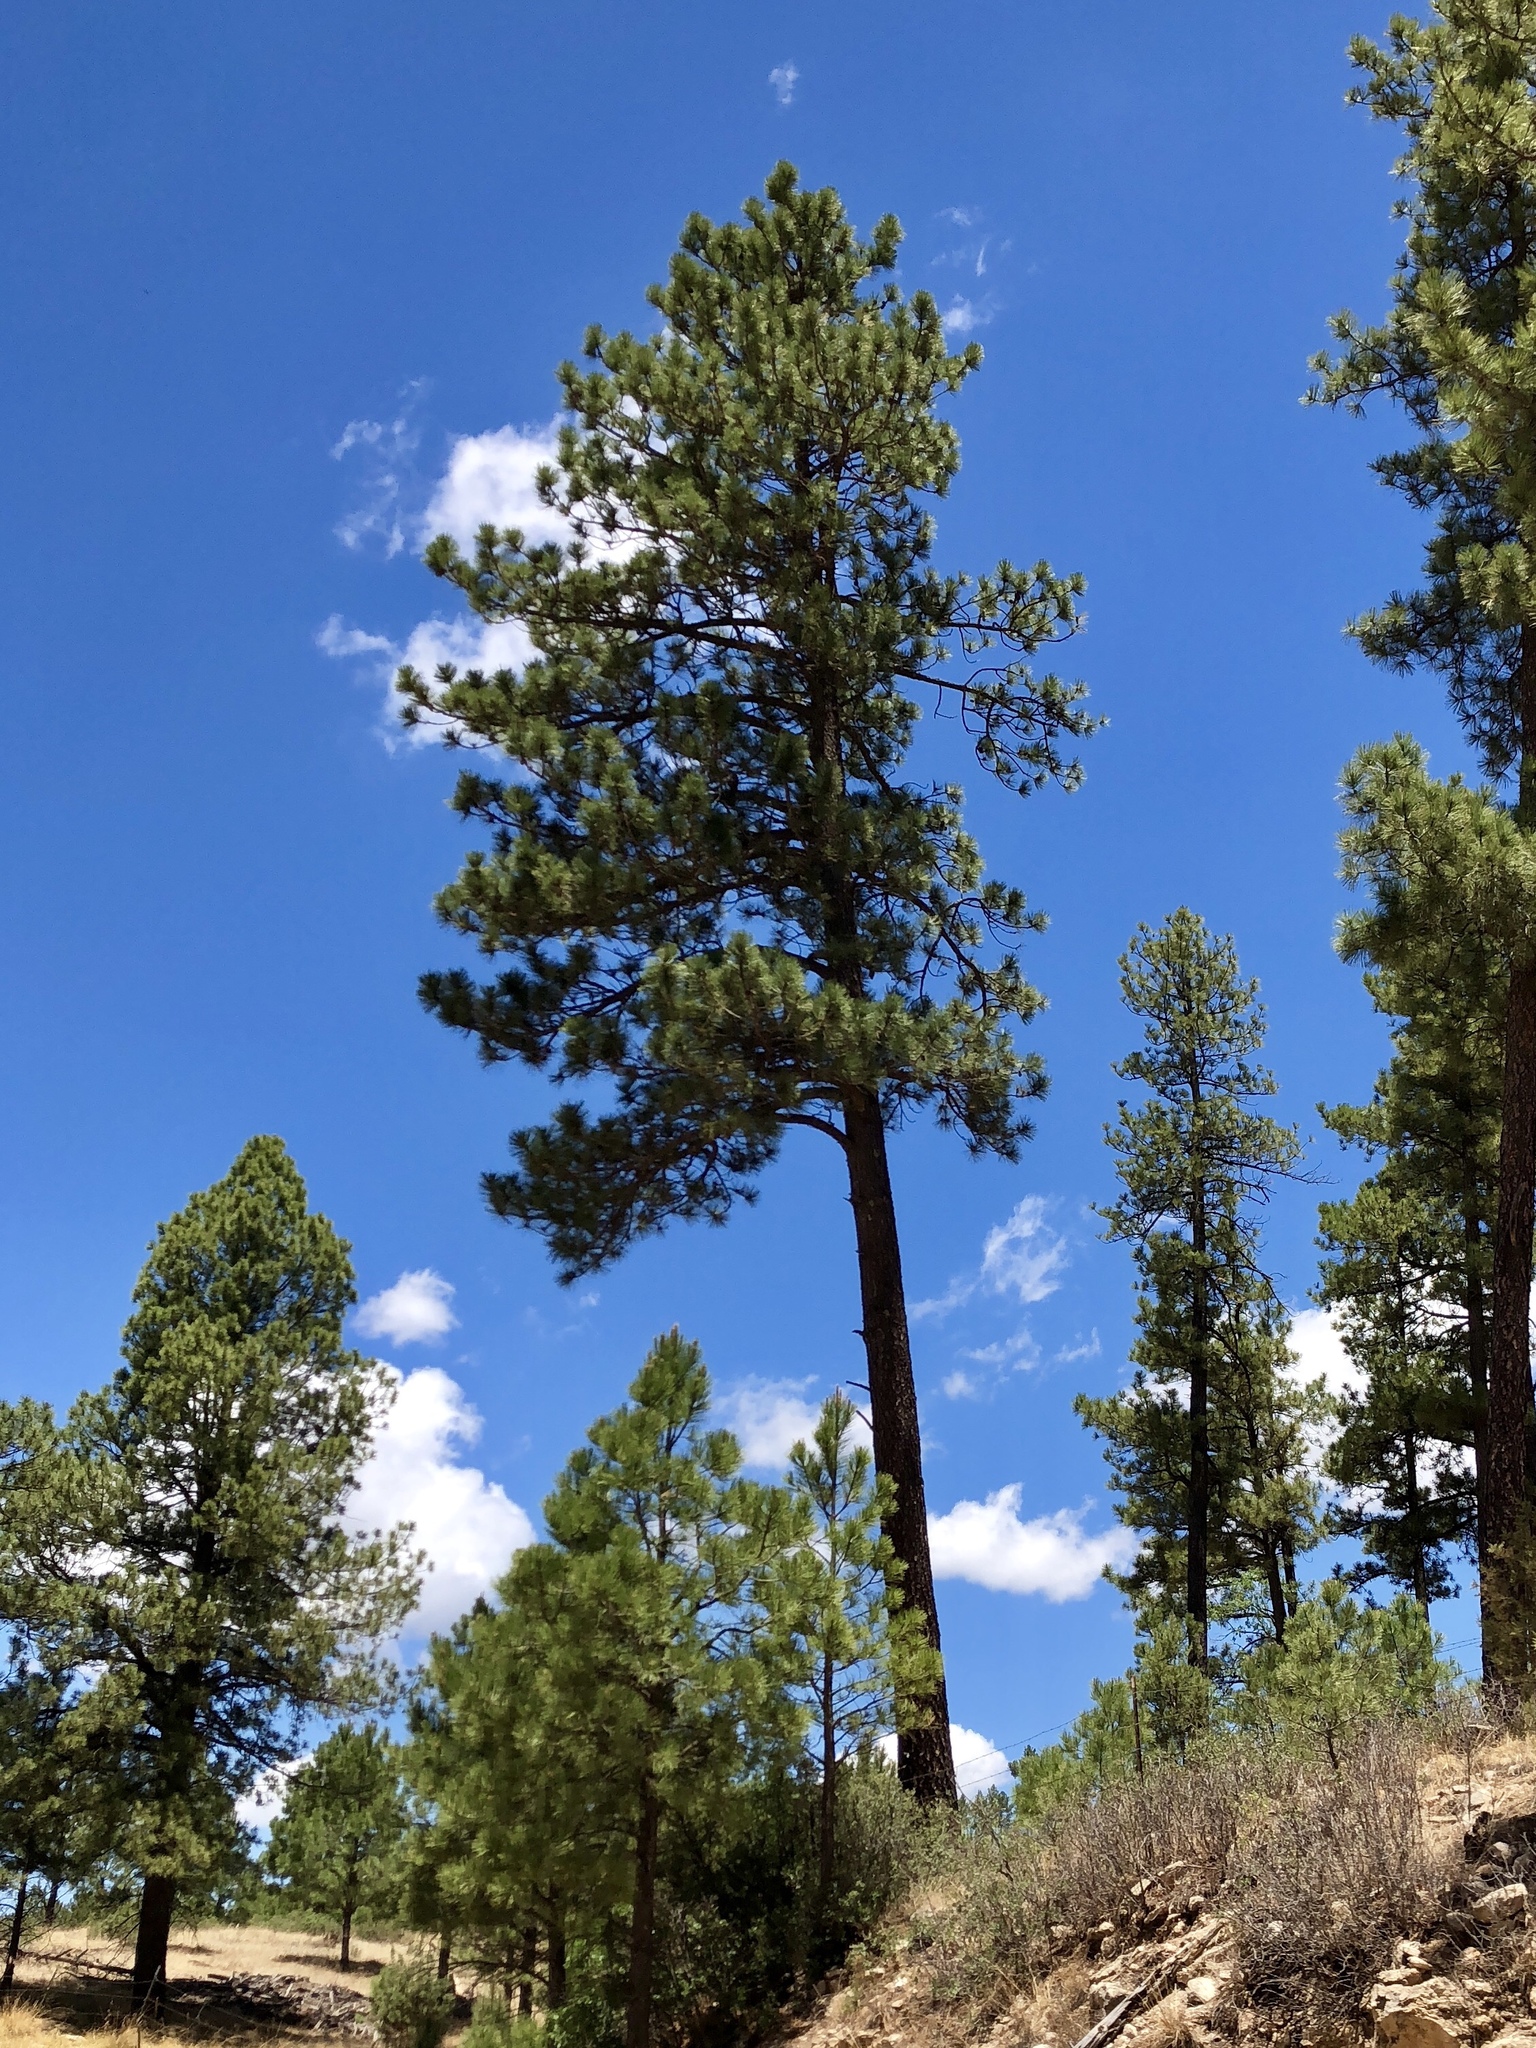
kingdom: Plantae
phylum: Tracheophyta
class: Pinopsida
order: Pinales
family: Pinaceae
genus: Pinus
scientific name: Pinus ponderosa
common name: Western yellow-pine
